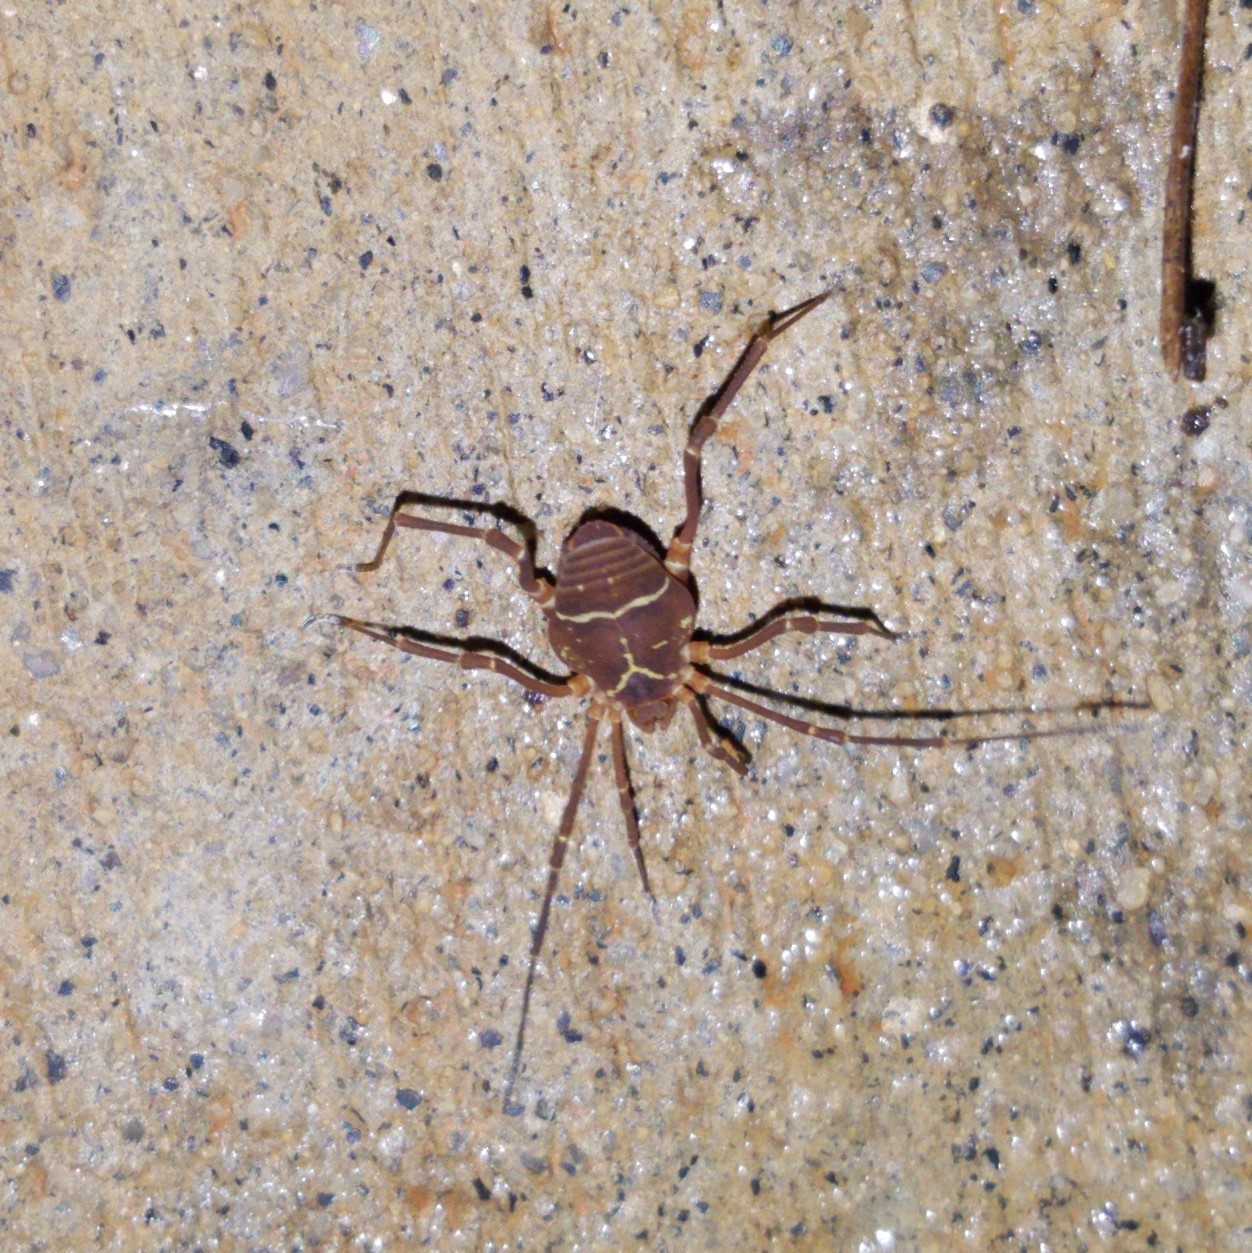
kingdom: Animalia
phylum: Arthropoda
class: Arachnida
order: Opiliones
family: Cosmetidae
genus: Libitioides
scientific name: Libitioides sayi
